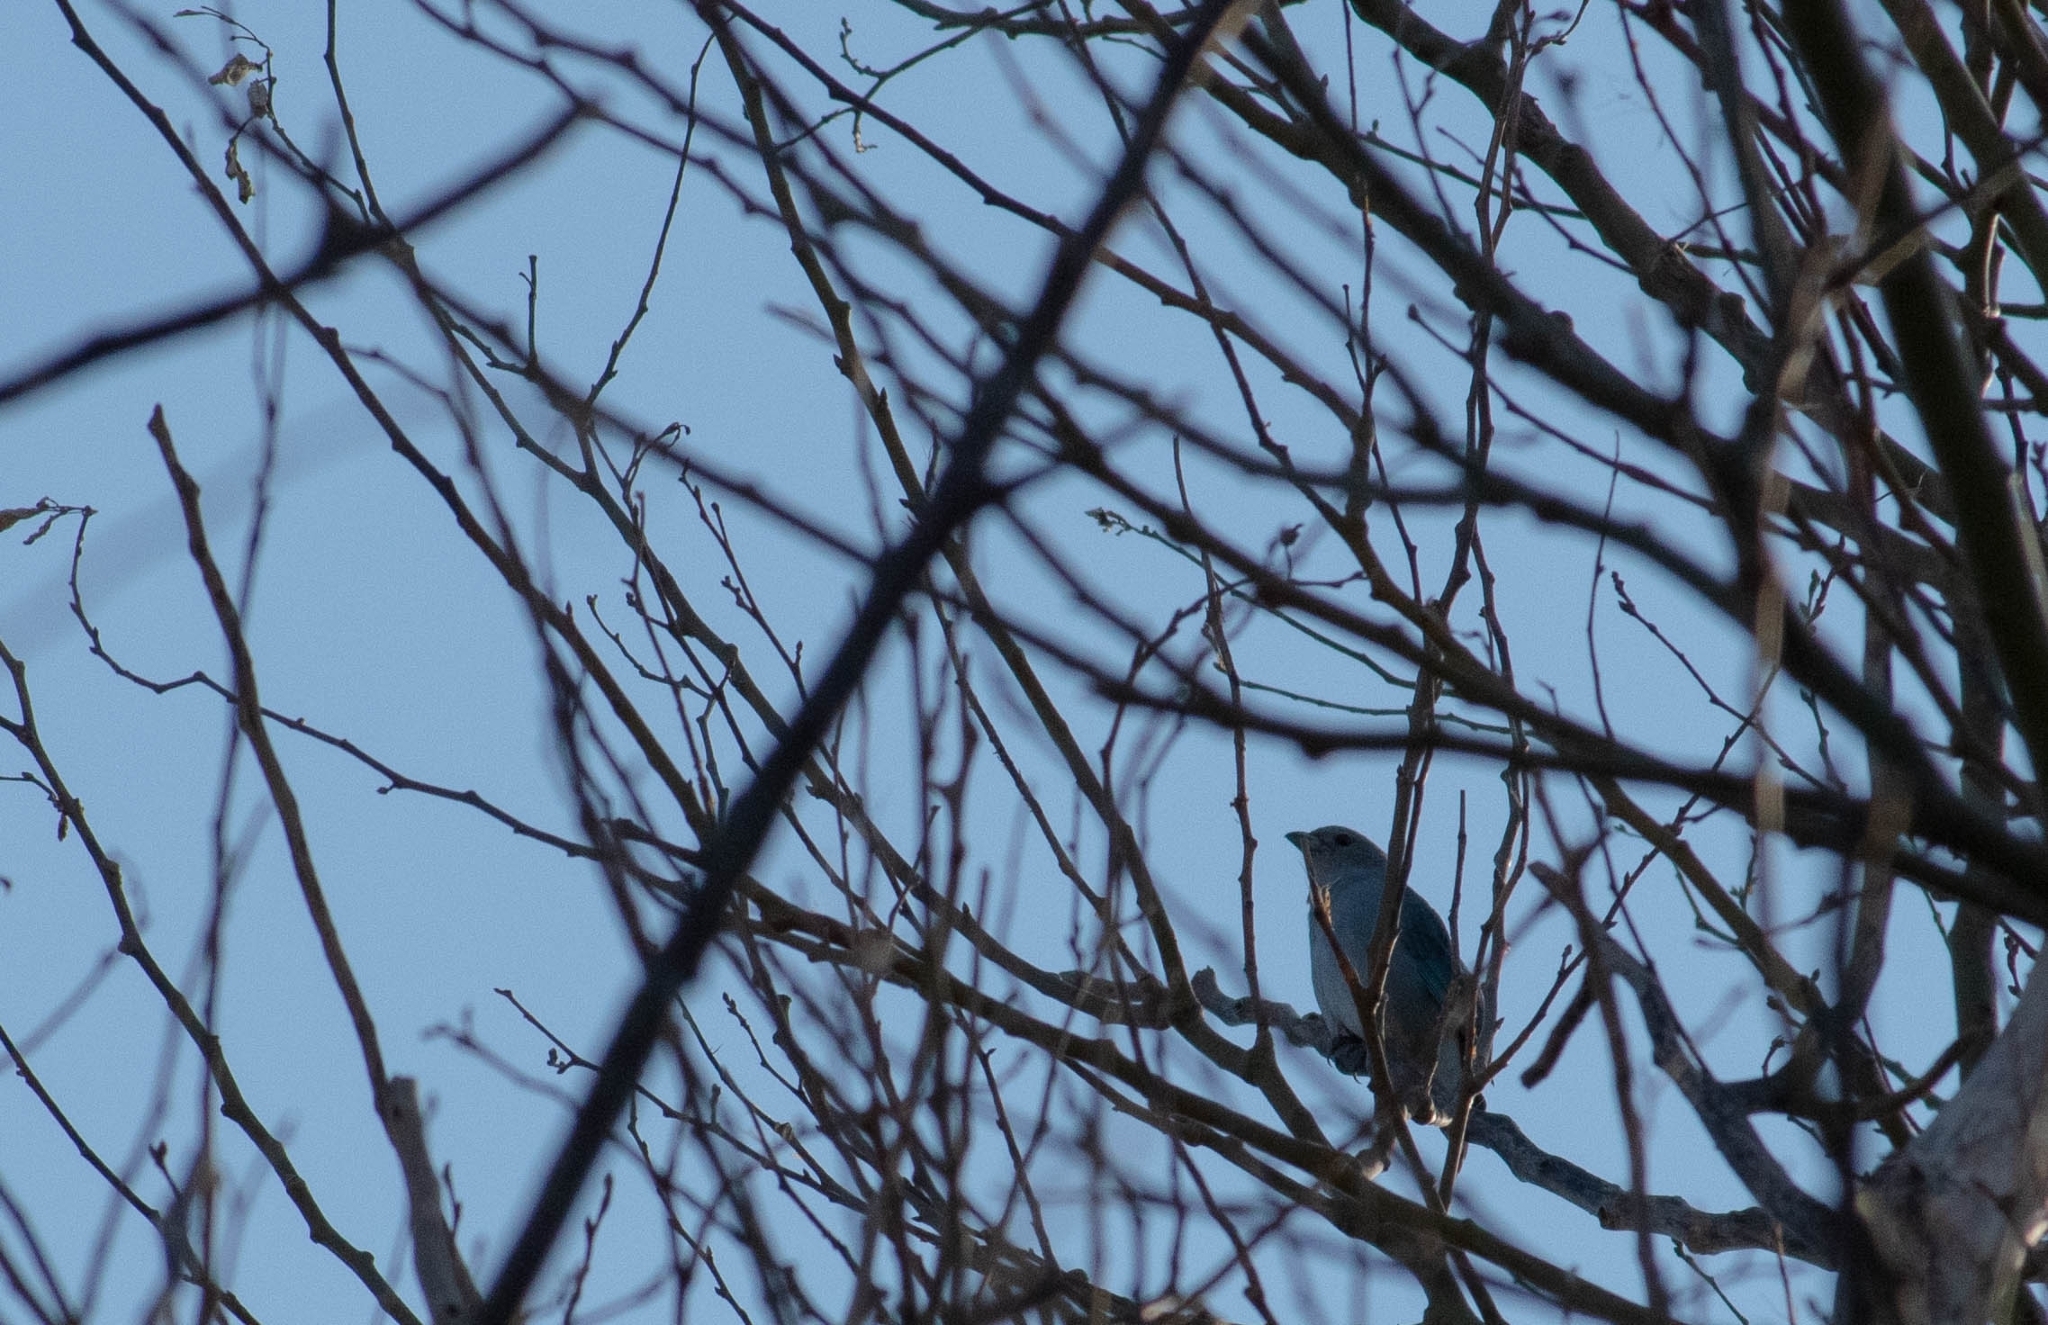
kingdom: Animalia
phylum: Chordata
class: Aves
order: Passeriformes
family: Thraupidae
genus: Thraupis
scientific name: Thraupis sayaca
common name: Sayaca tanager
